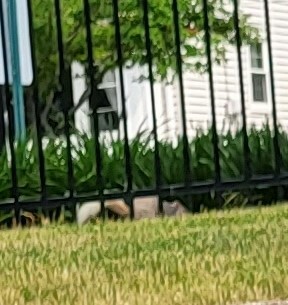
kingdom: Animalia
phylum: Chordata
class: Mammalia
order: Rodentia
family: Sciuridae
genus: Sciurus
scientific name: Sciurus carolinensis
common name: Eastern gray squirrel
